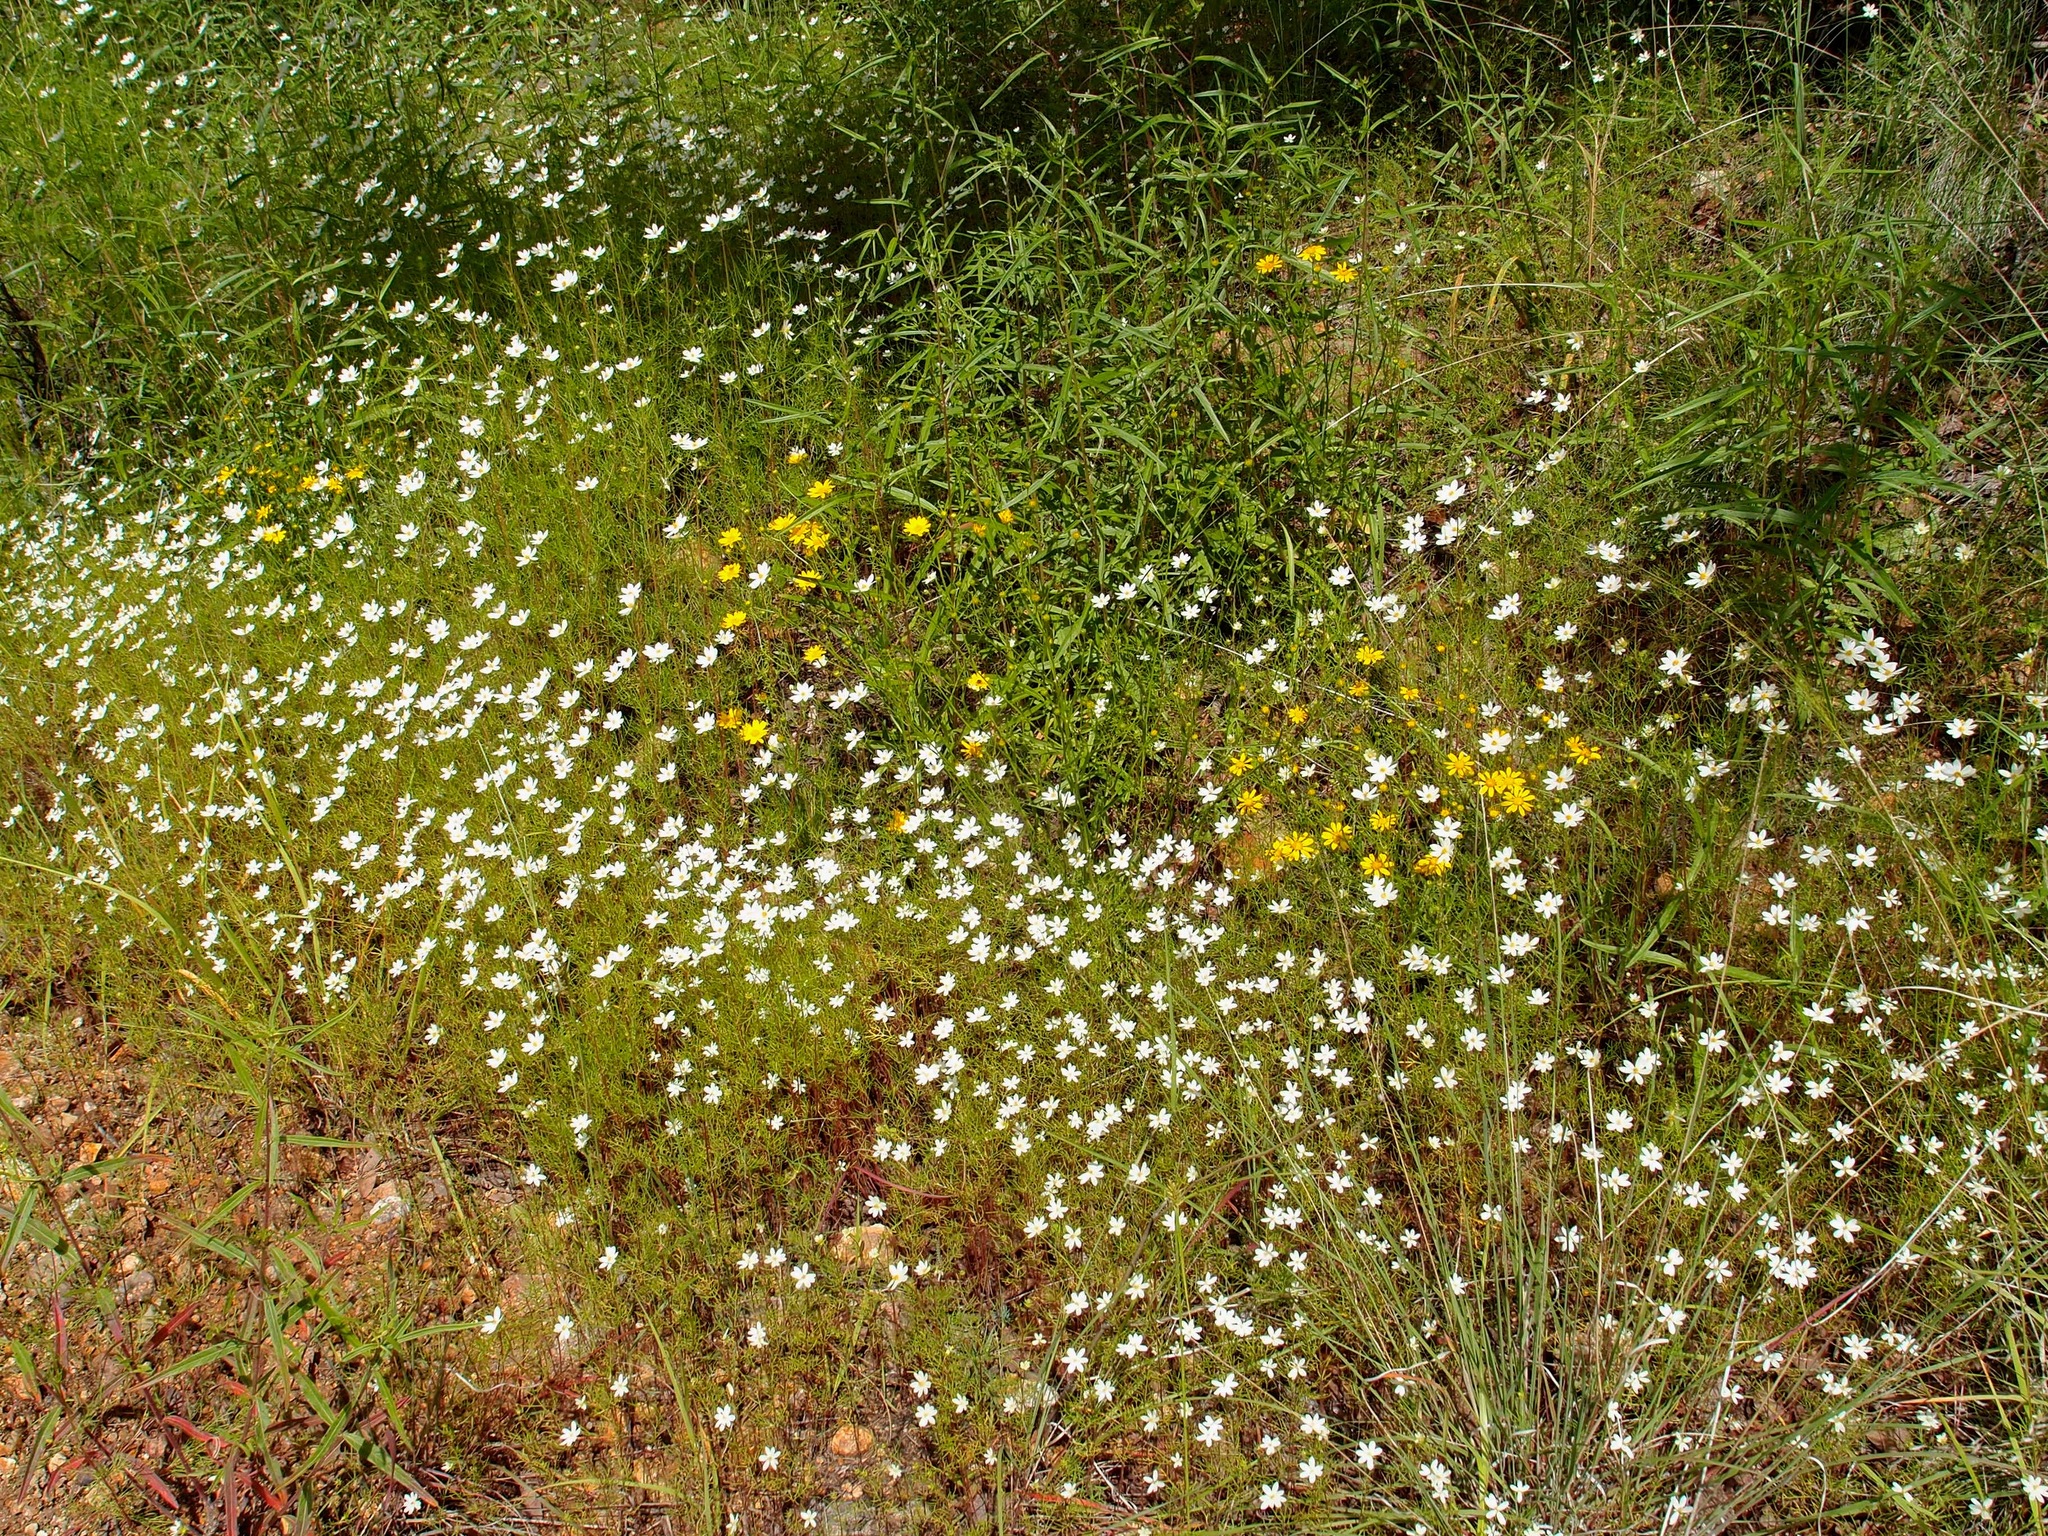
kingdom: Plantae
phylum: Tracheophyta
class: Magnoliopsida
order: Asterales
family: Asteraceae
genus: Cosmos
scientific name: Cosmos parviflorus
